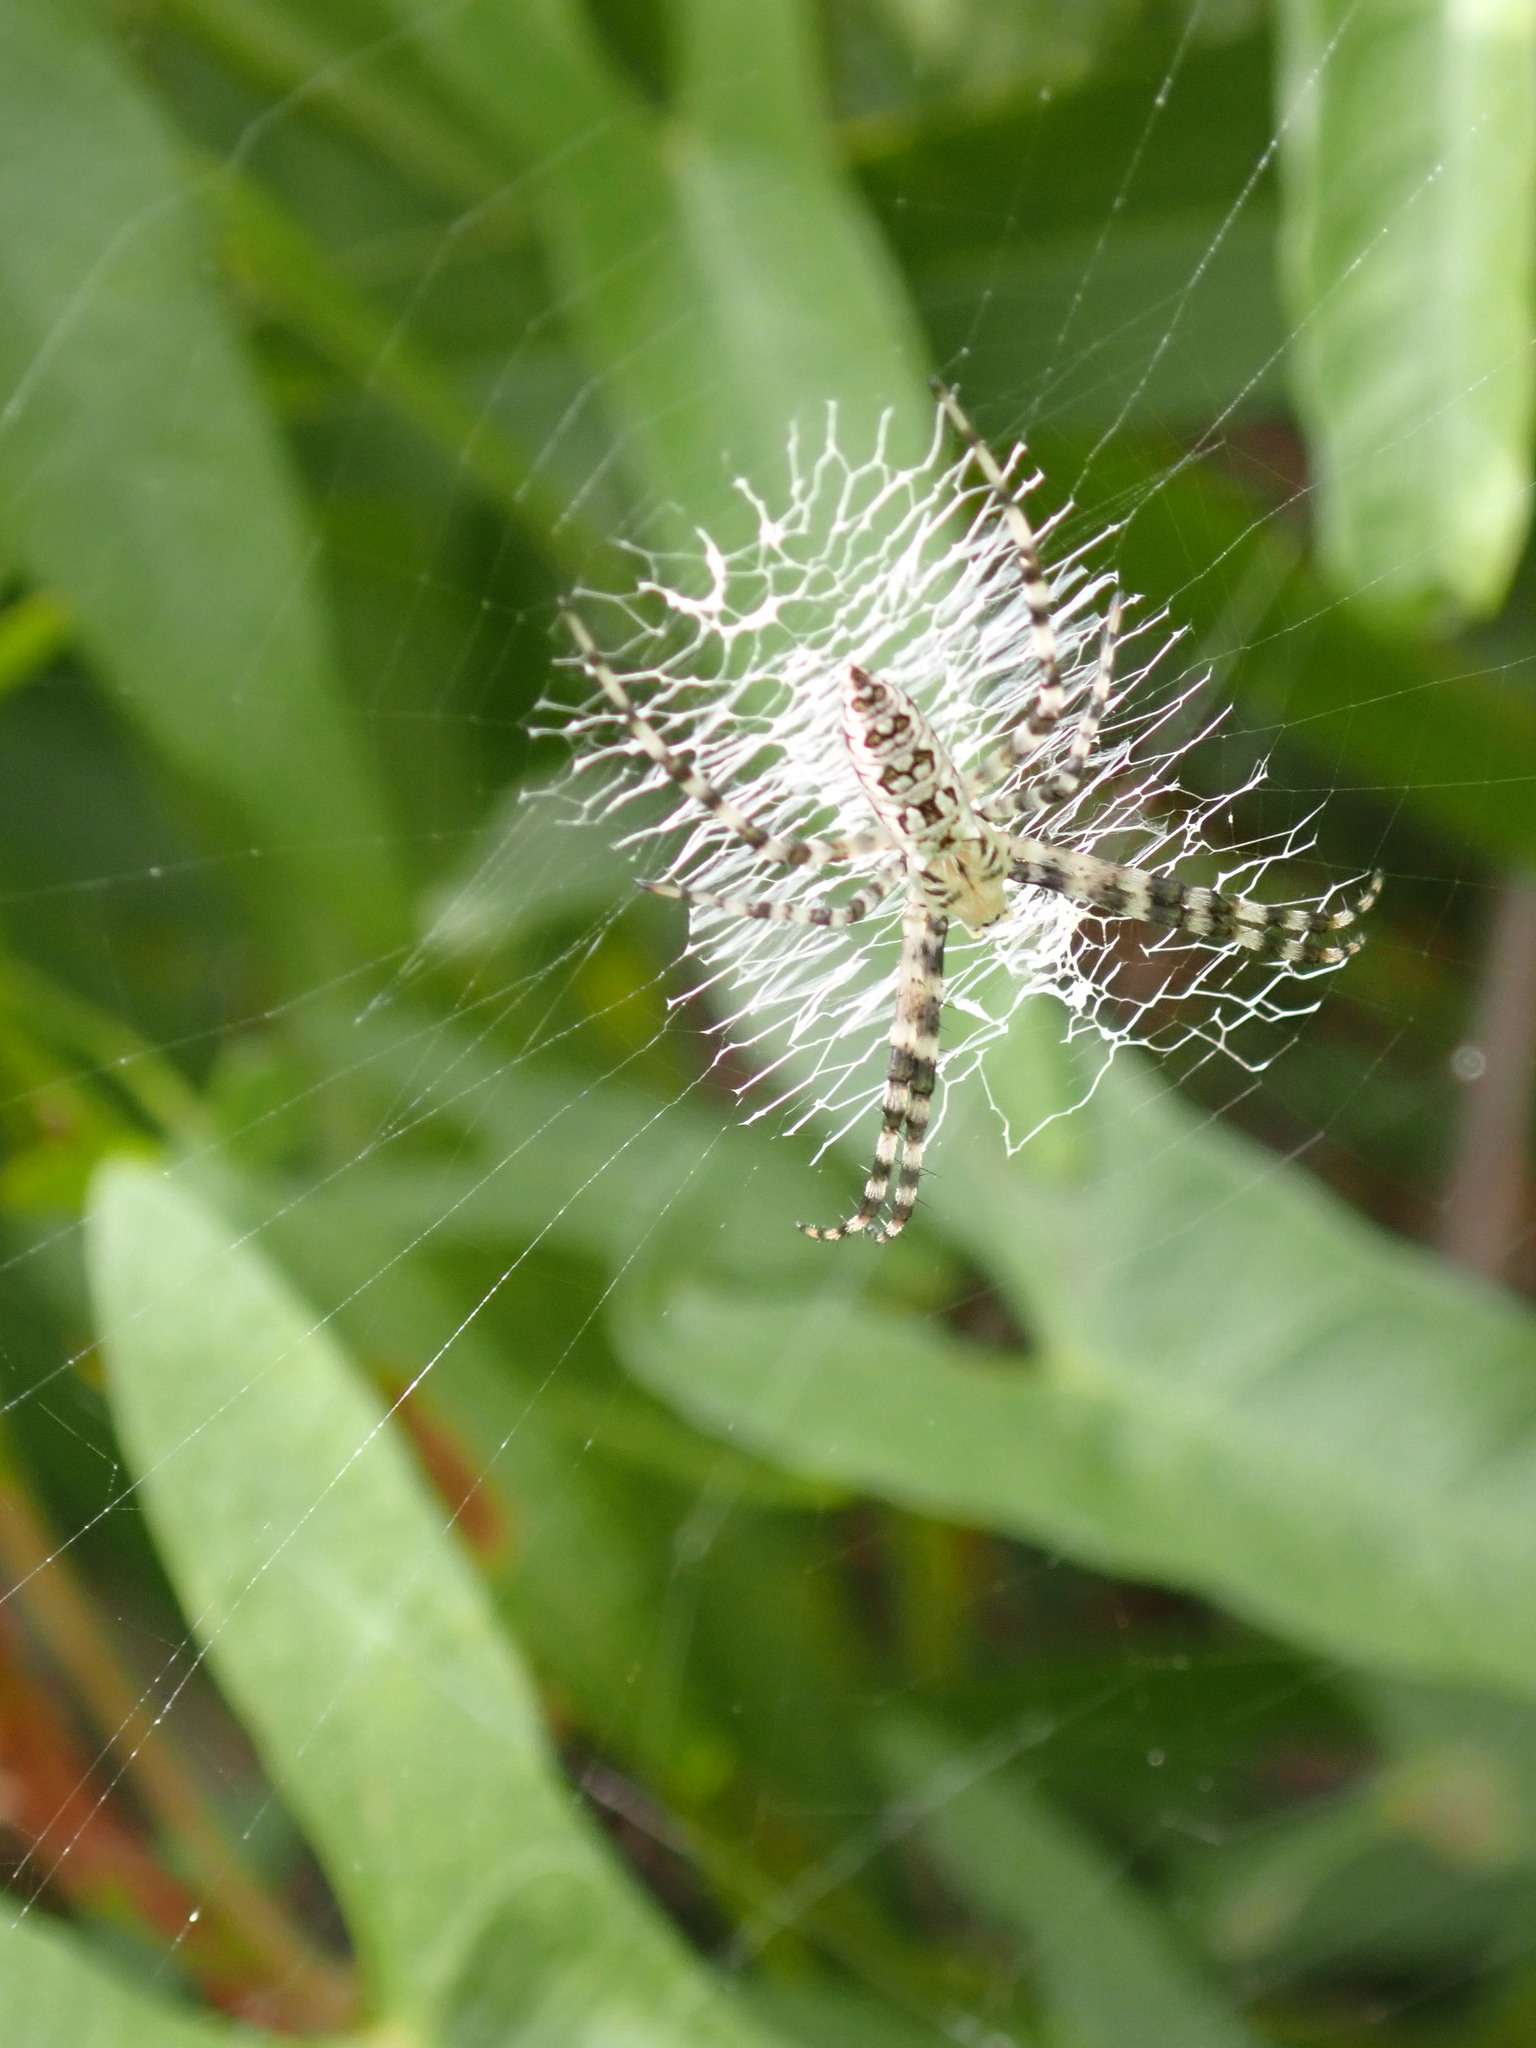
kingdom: Animalia
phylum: Arthropoda
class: Arachnida
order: Araneae
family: Araneidae
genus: Argiope
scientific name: Argiope aurantia
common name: Orb weavers
